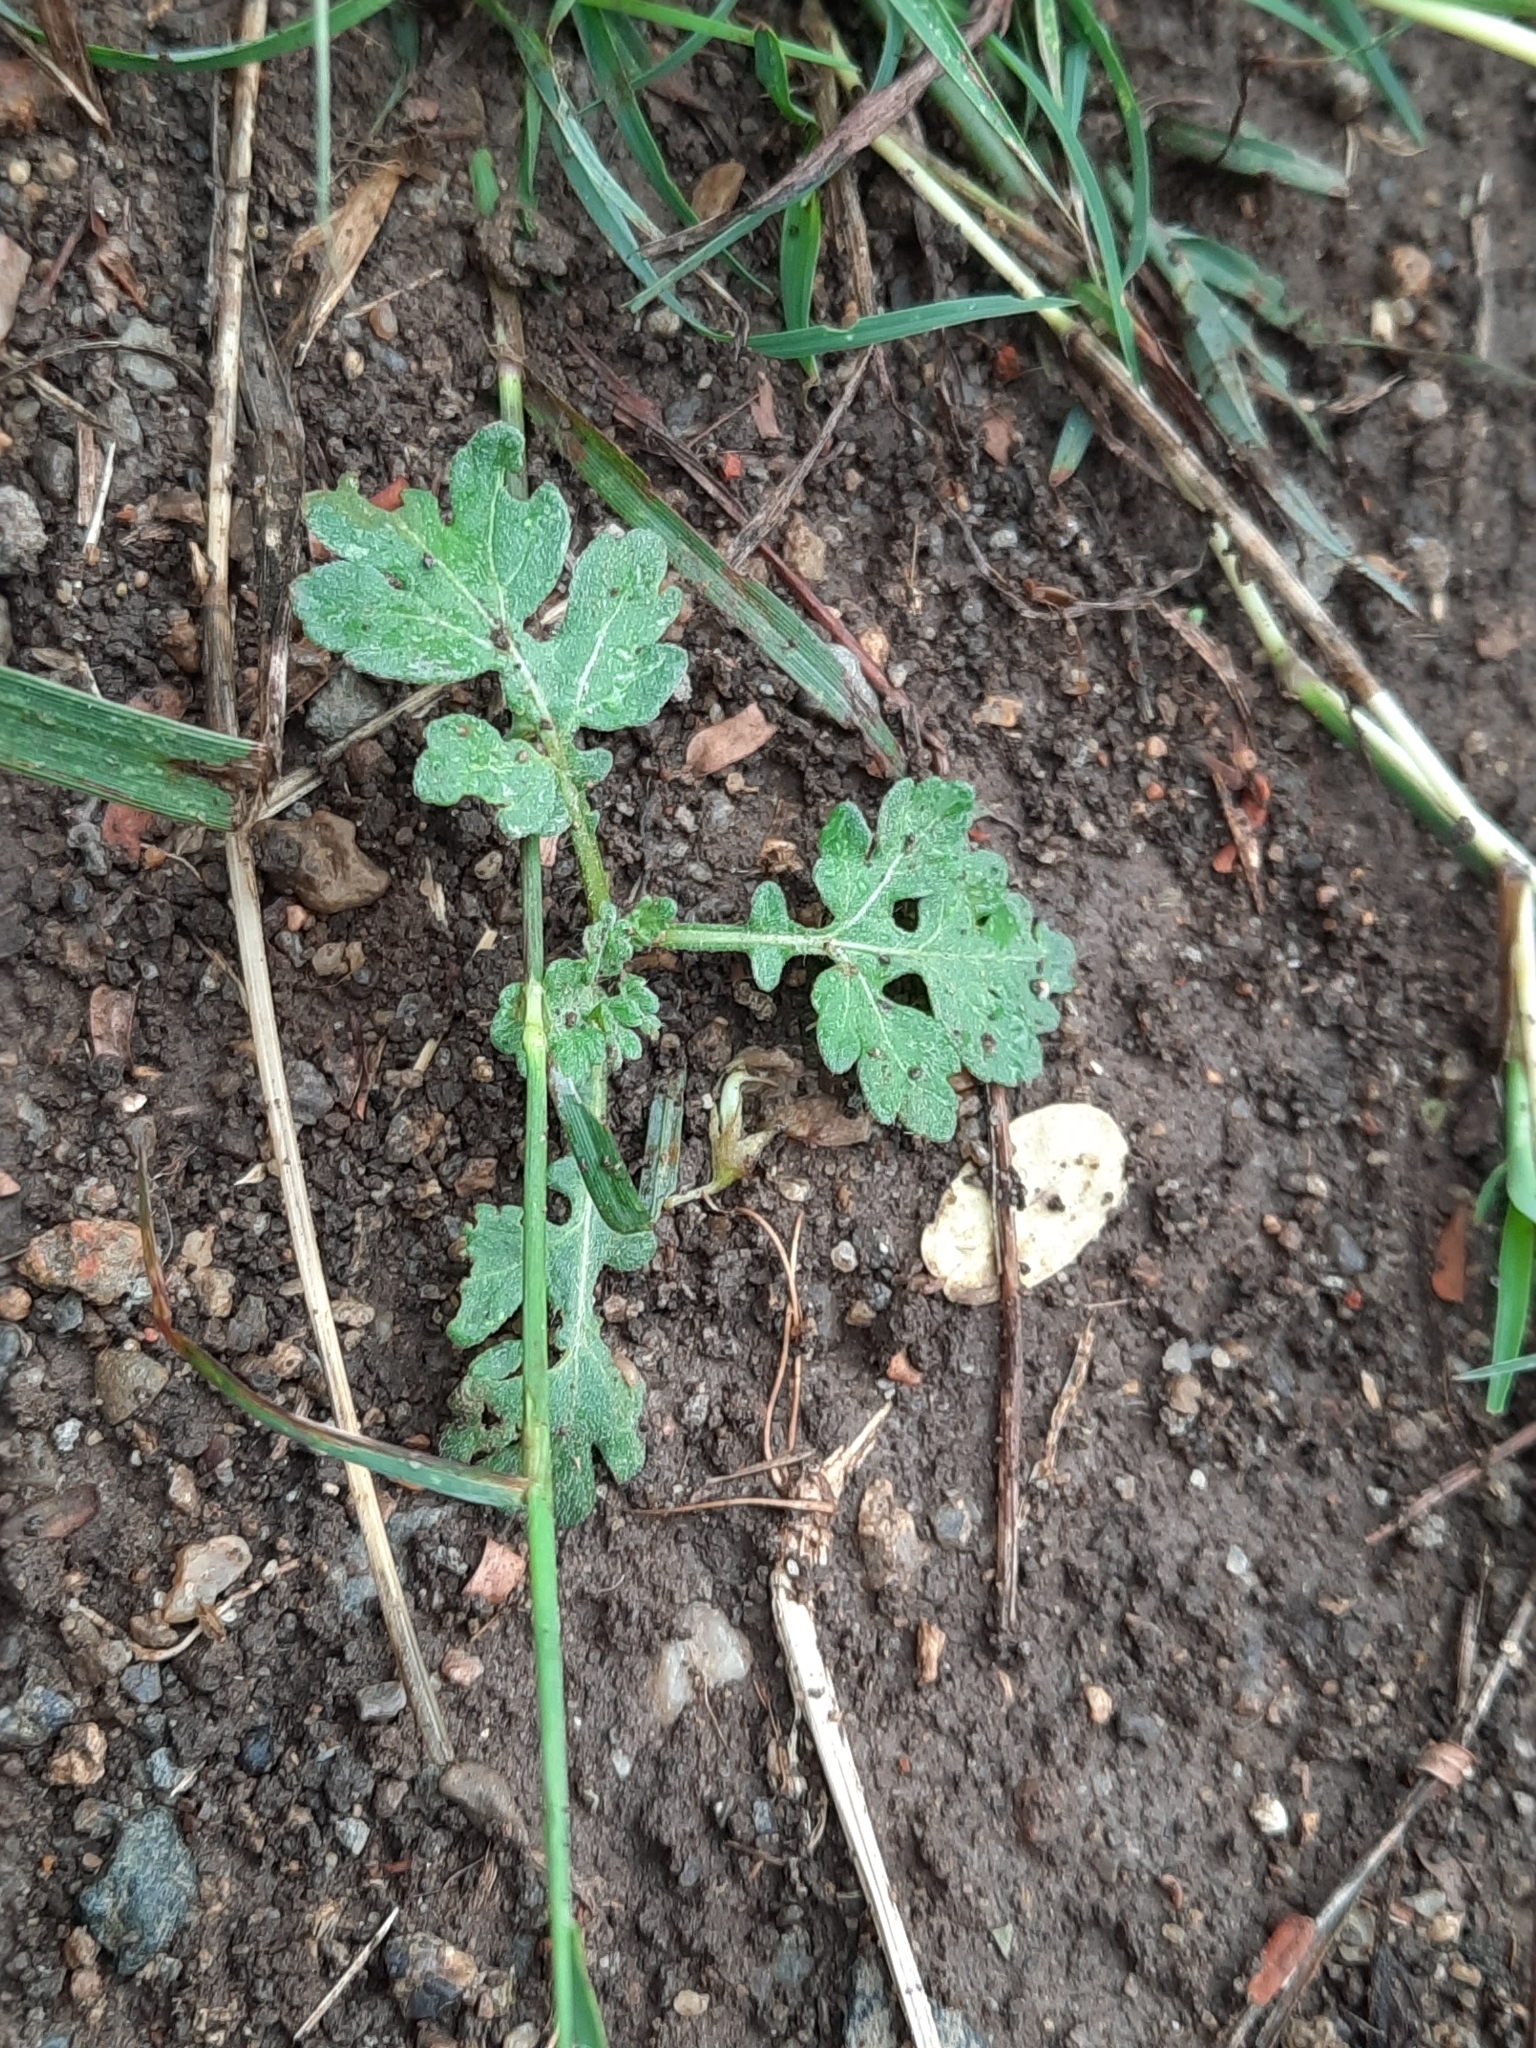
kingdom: Plantae
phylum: Tracheophyta
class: Magnoliopsida
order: Asterales
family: Asteraceae
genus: Parthenium
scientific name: Parthenium hysterophorus
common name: Santa maria feverfew
